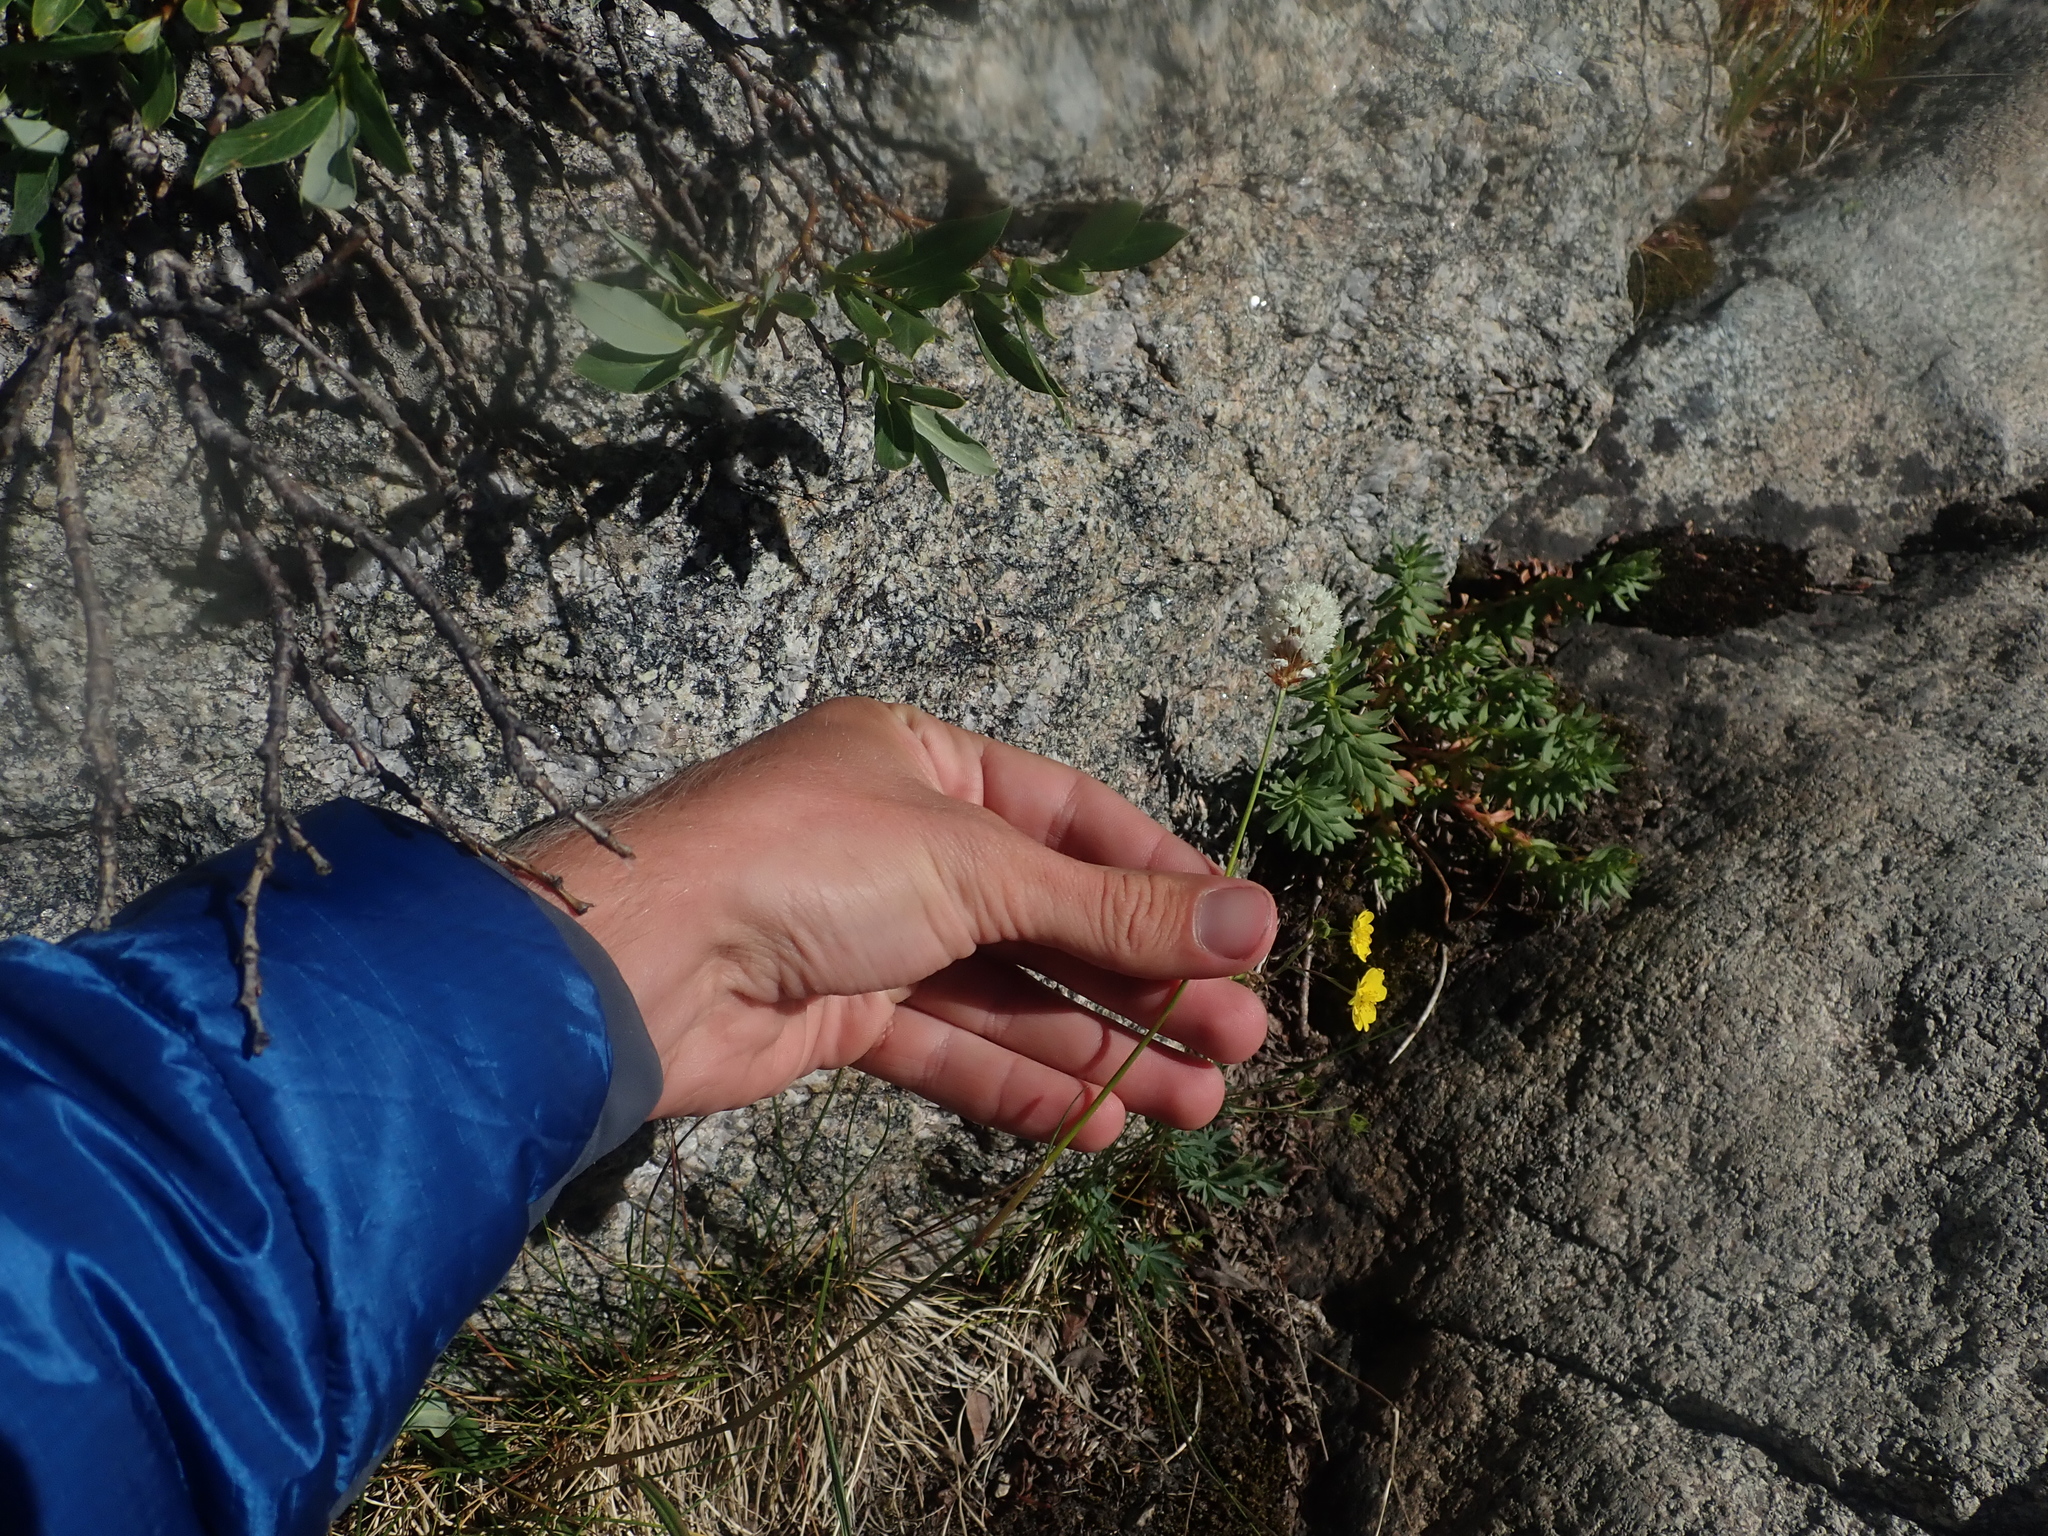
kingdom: Plantae
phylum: Tracheophyta
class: Magnoliopsida
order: Caryophyllales
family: Polygonaceae
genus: Bistorta
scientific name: Bistorta bistortoides
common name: American bistort
